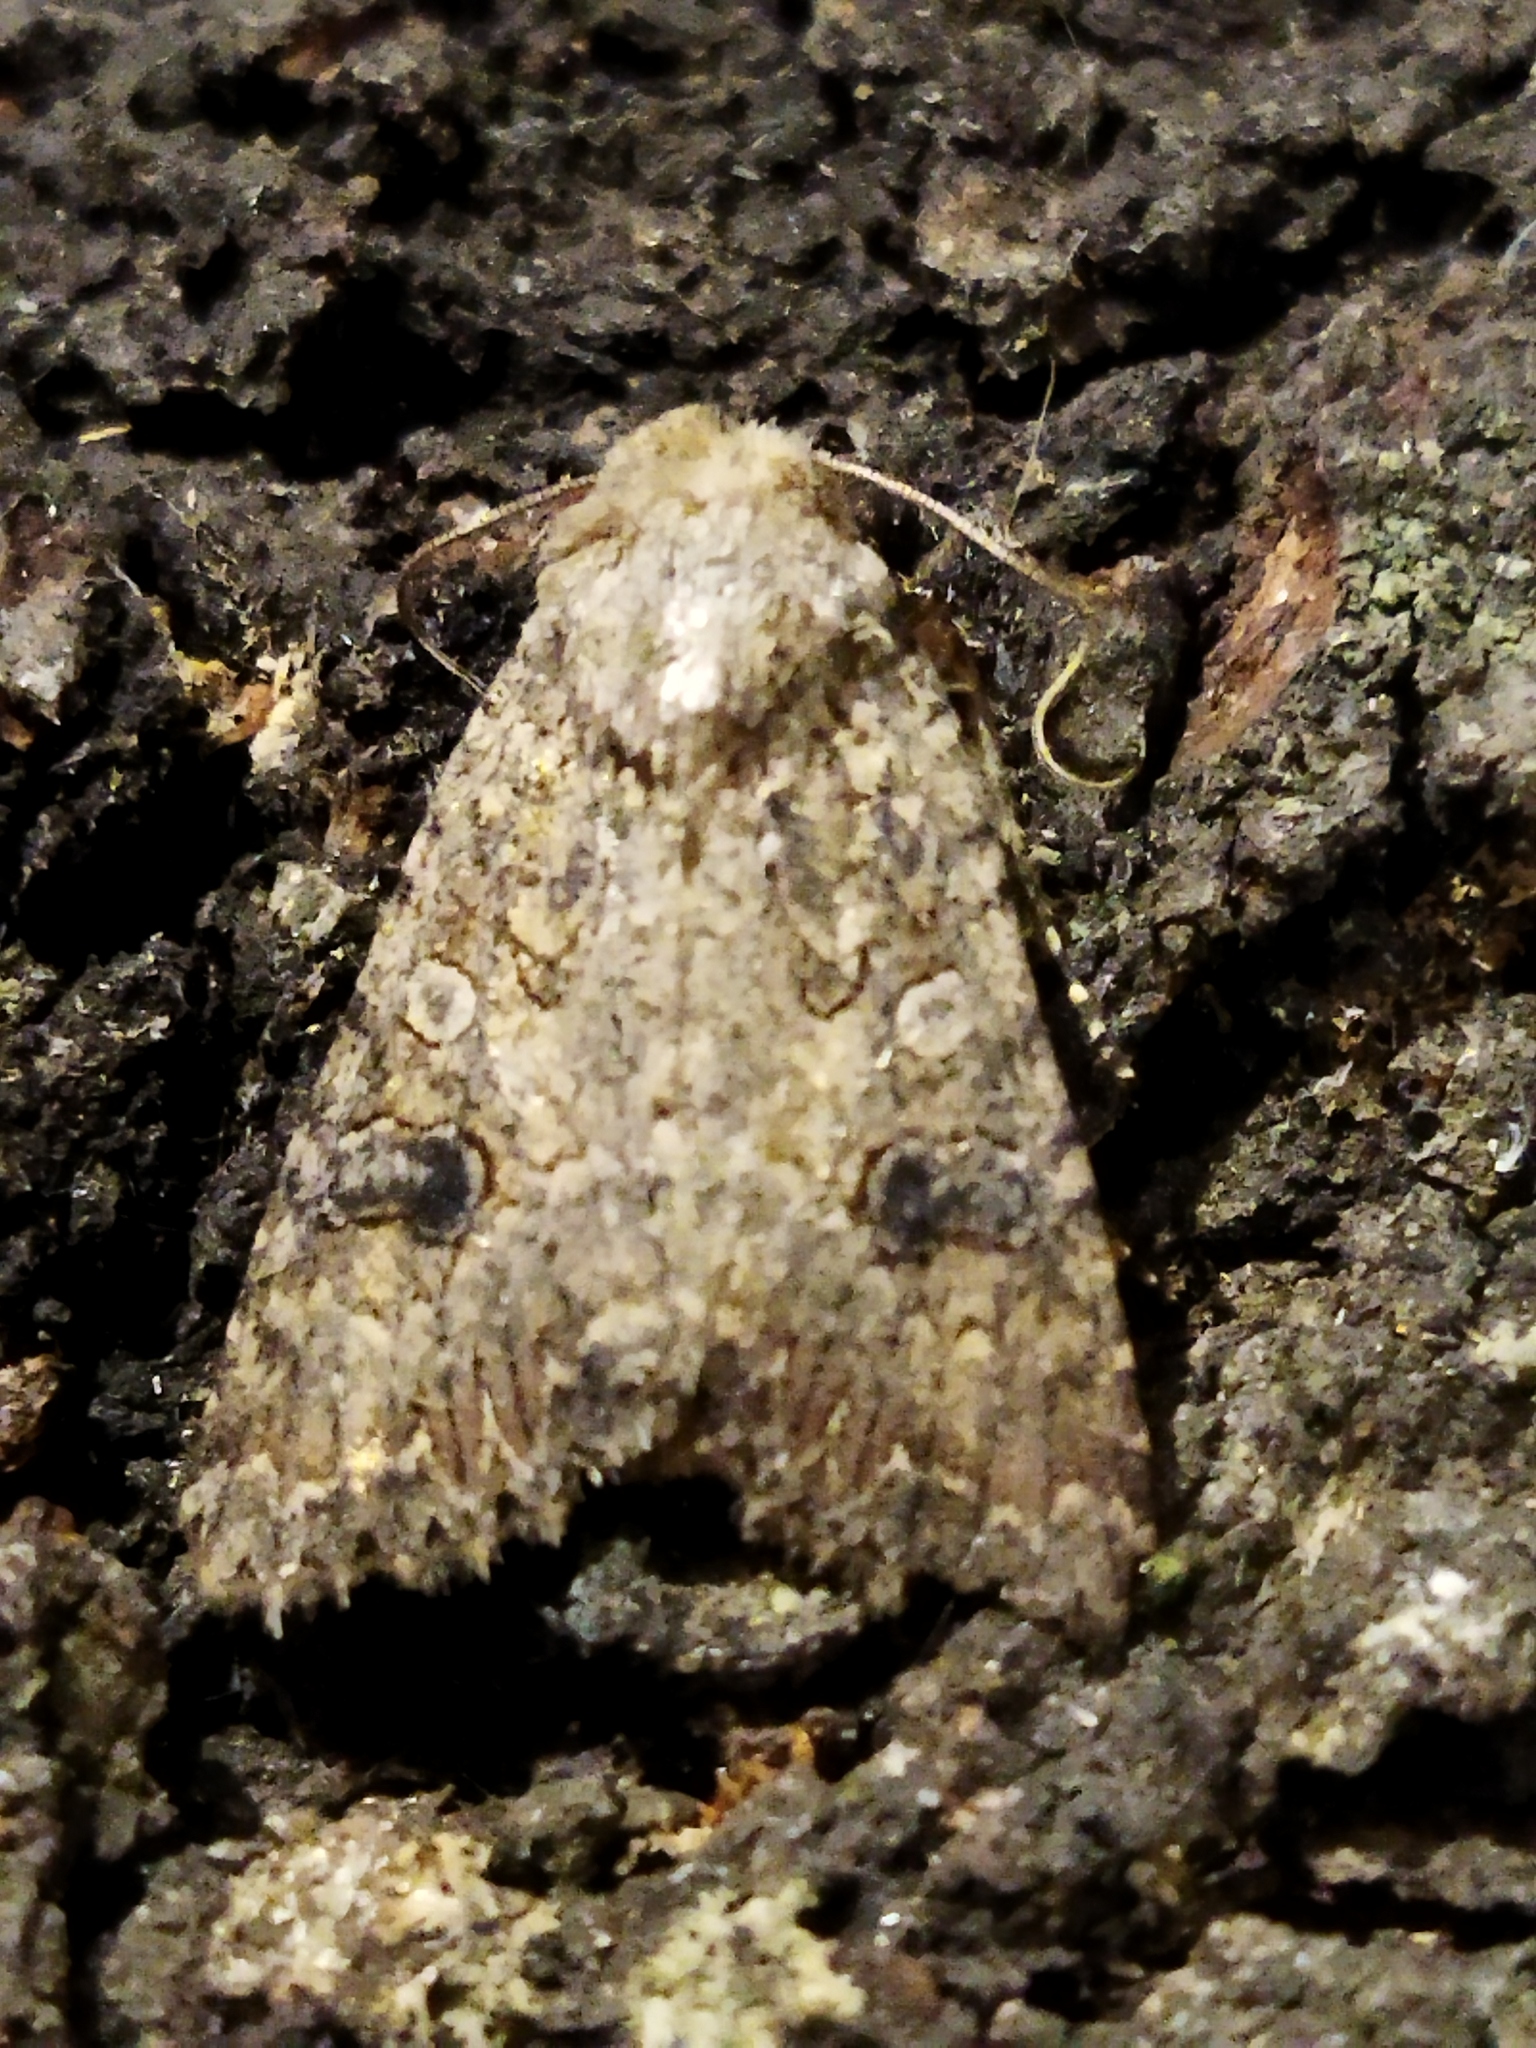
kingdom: Animalia
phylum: Arthropoda
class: Insecta
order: Lepidoptera
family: Noctuidae
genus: Anarta
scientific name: Anarta trifolii
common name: Clover cutworm moth
